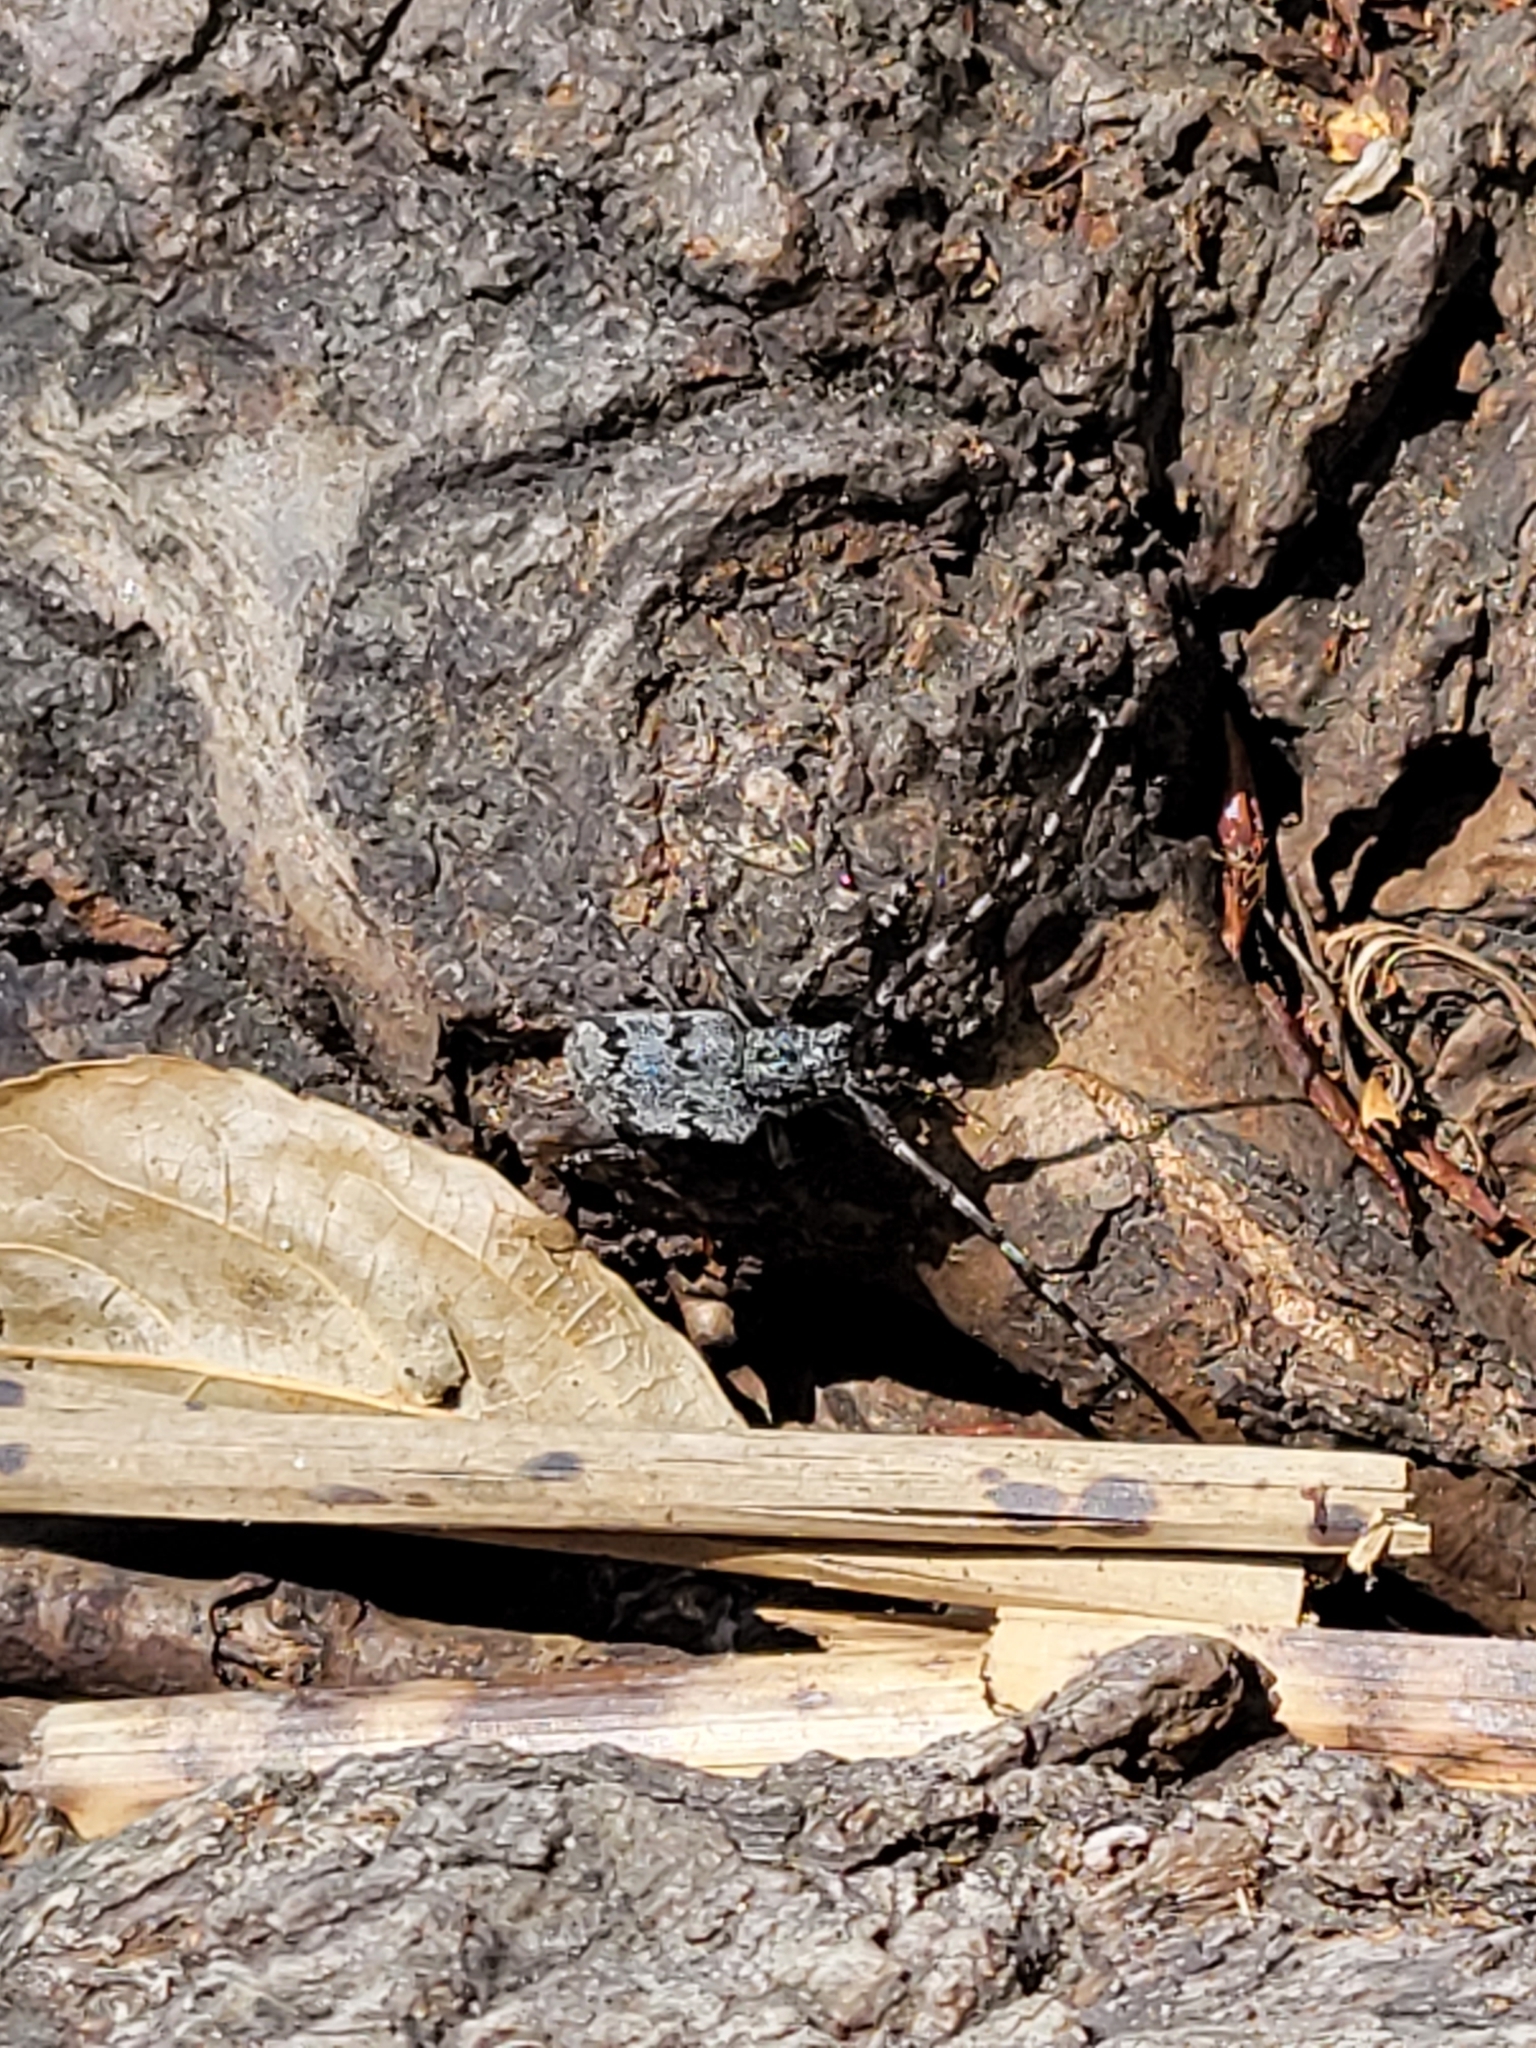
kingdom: Animalia
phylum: Arthropoda
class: Insecta
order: Coleoptera
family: Cerambycidae
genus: Synaphaeta
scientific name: Synaphaeta guexi
